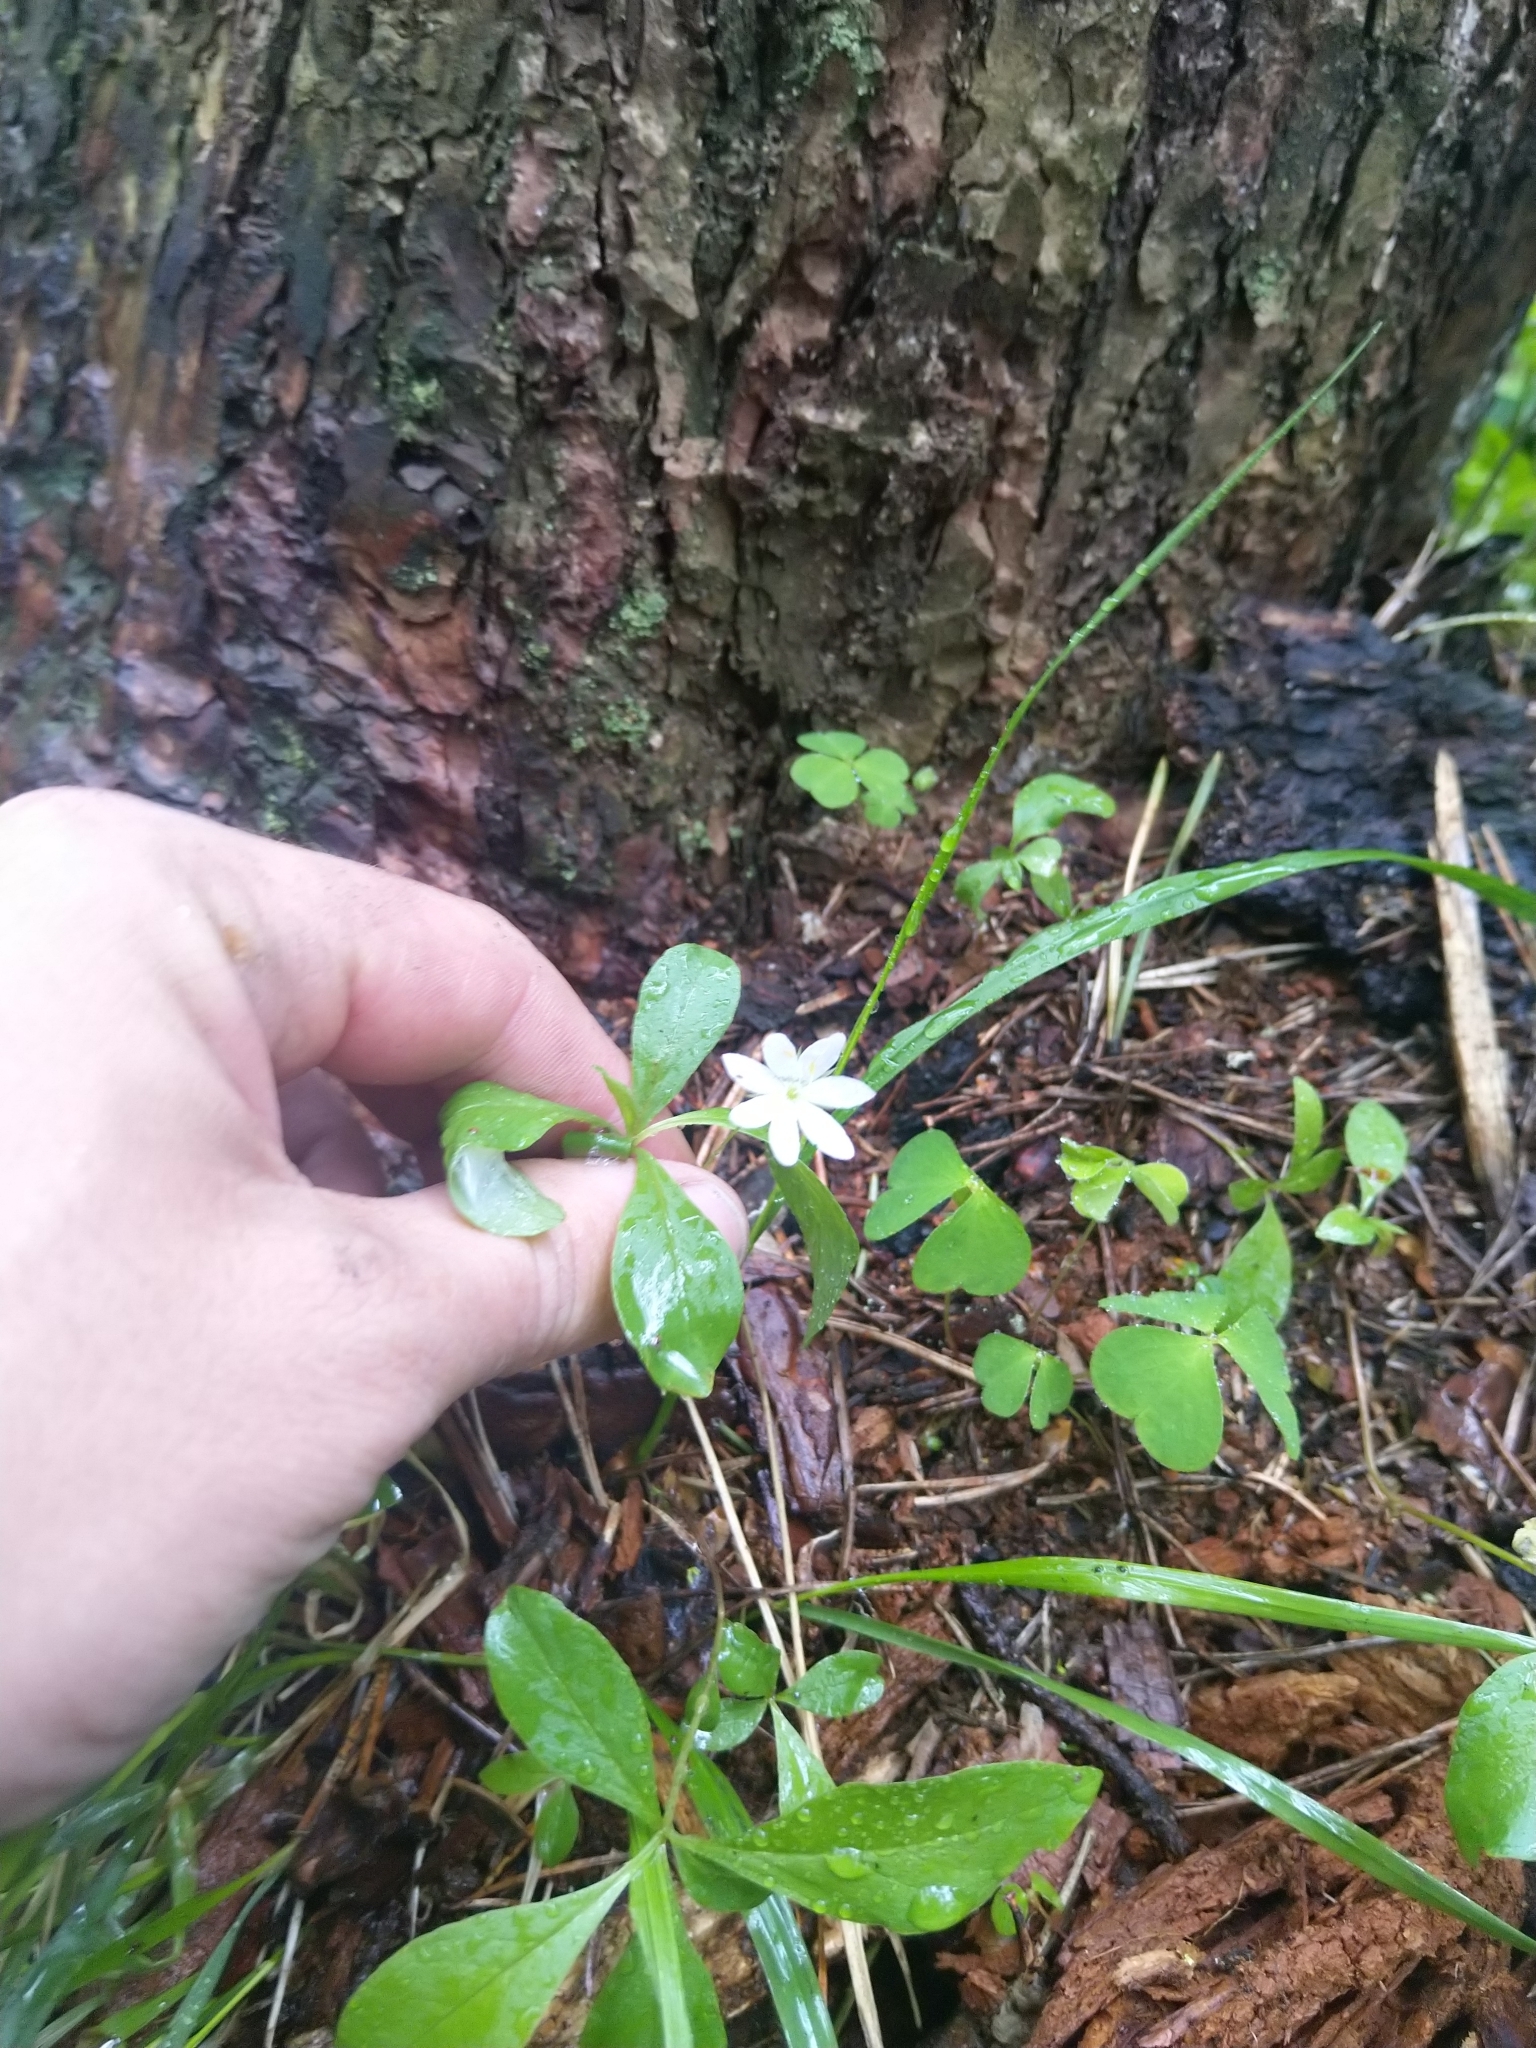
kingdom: Plantae
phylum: Tracheophyta
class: Magnoliopsida
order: Ericales
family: Primulaceae
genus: Lysimachia
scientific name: Lysimachia europaea
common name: Arctic starflower
